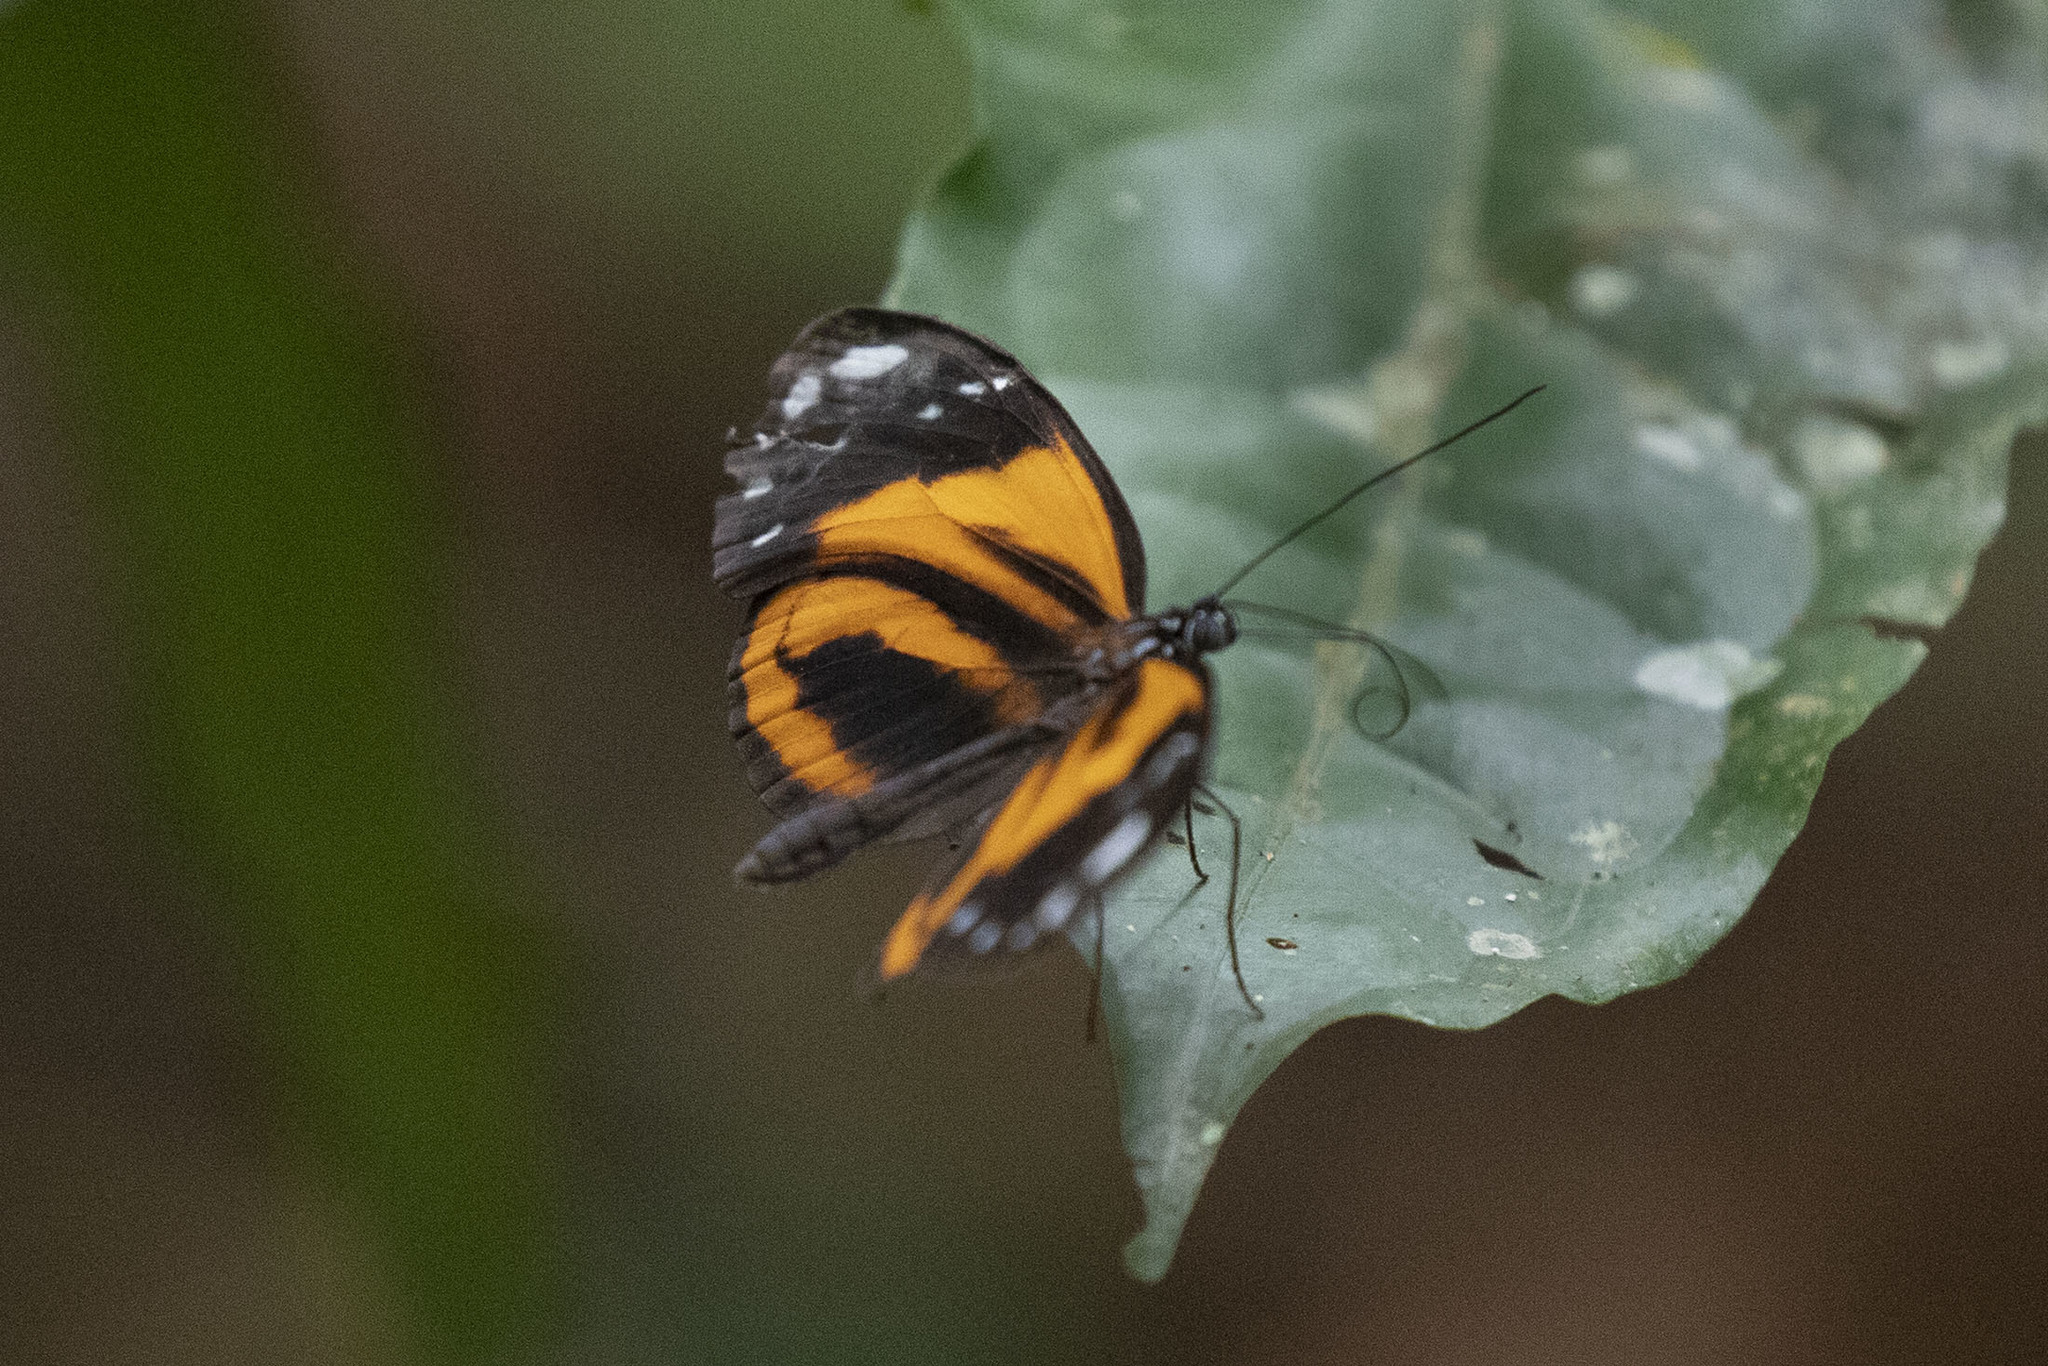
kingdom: Animalia
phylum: Arthropoda
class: Insecta
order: Lepidoptera
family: Nymphalidae
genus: Hyposcada
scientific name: Hyposcada anchiala
